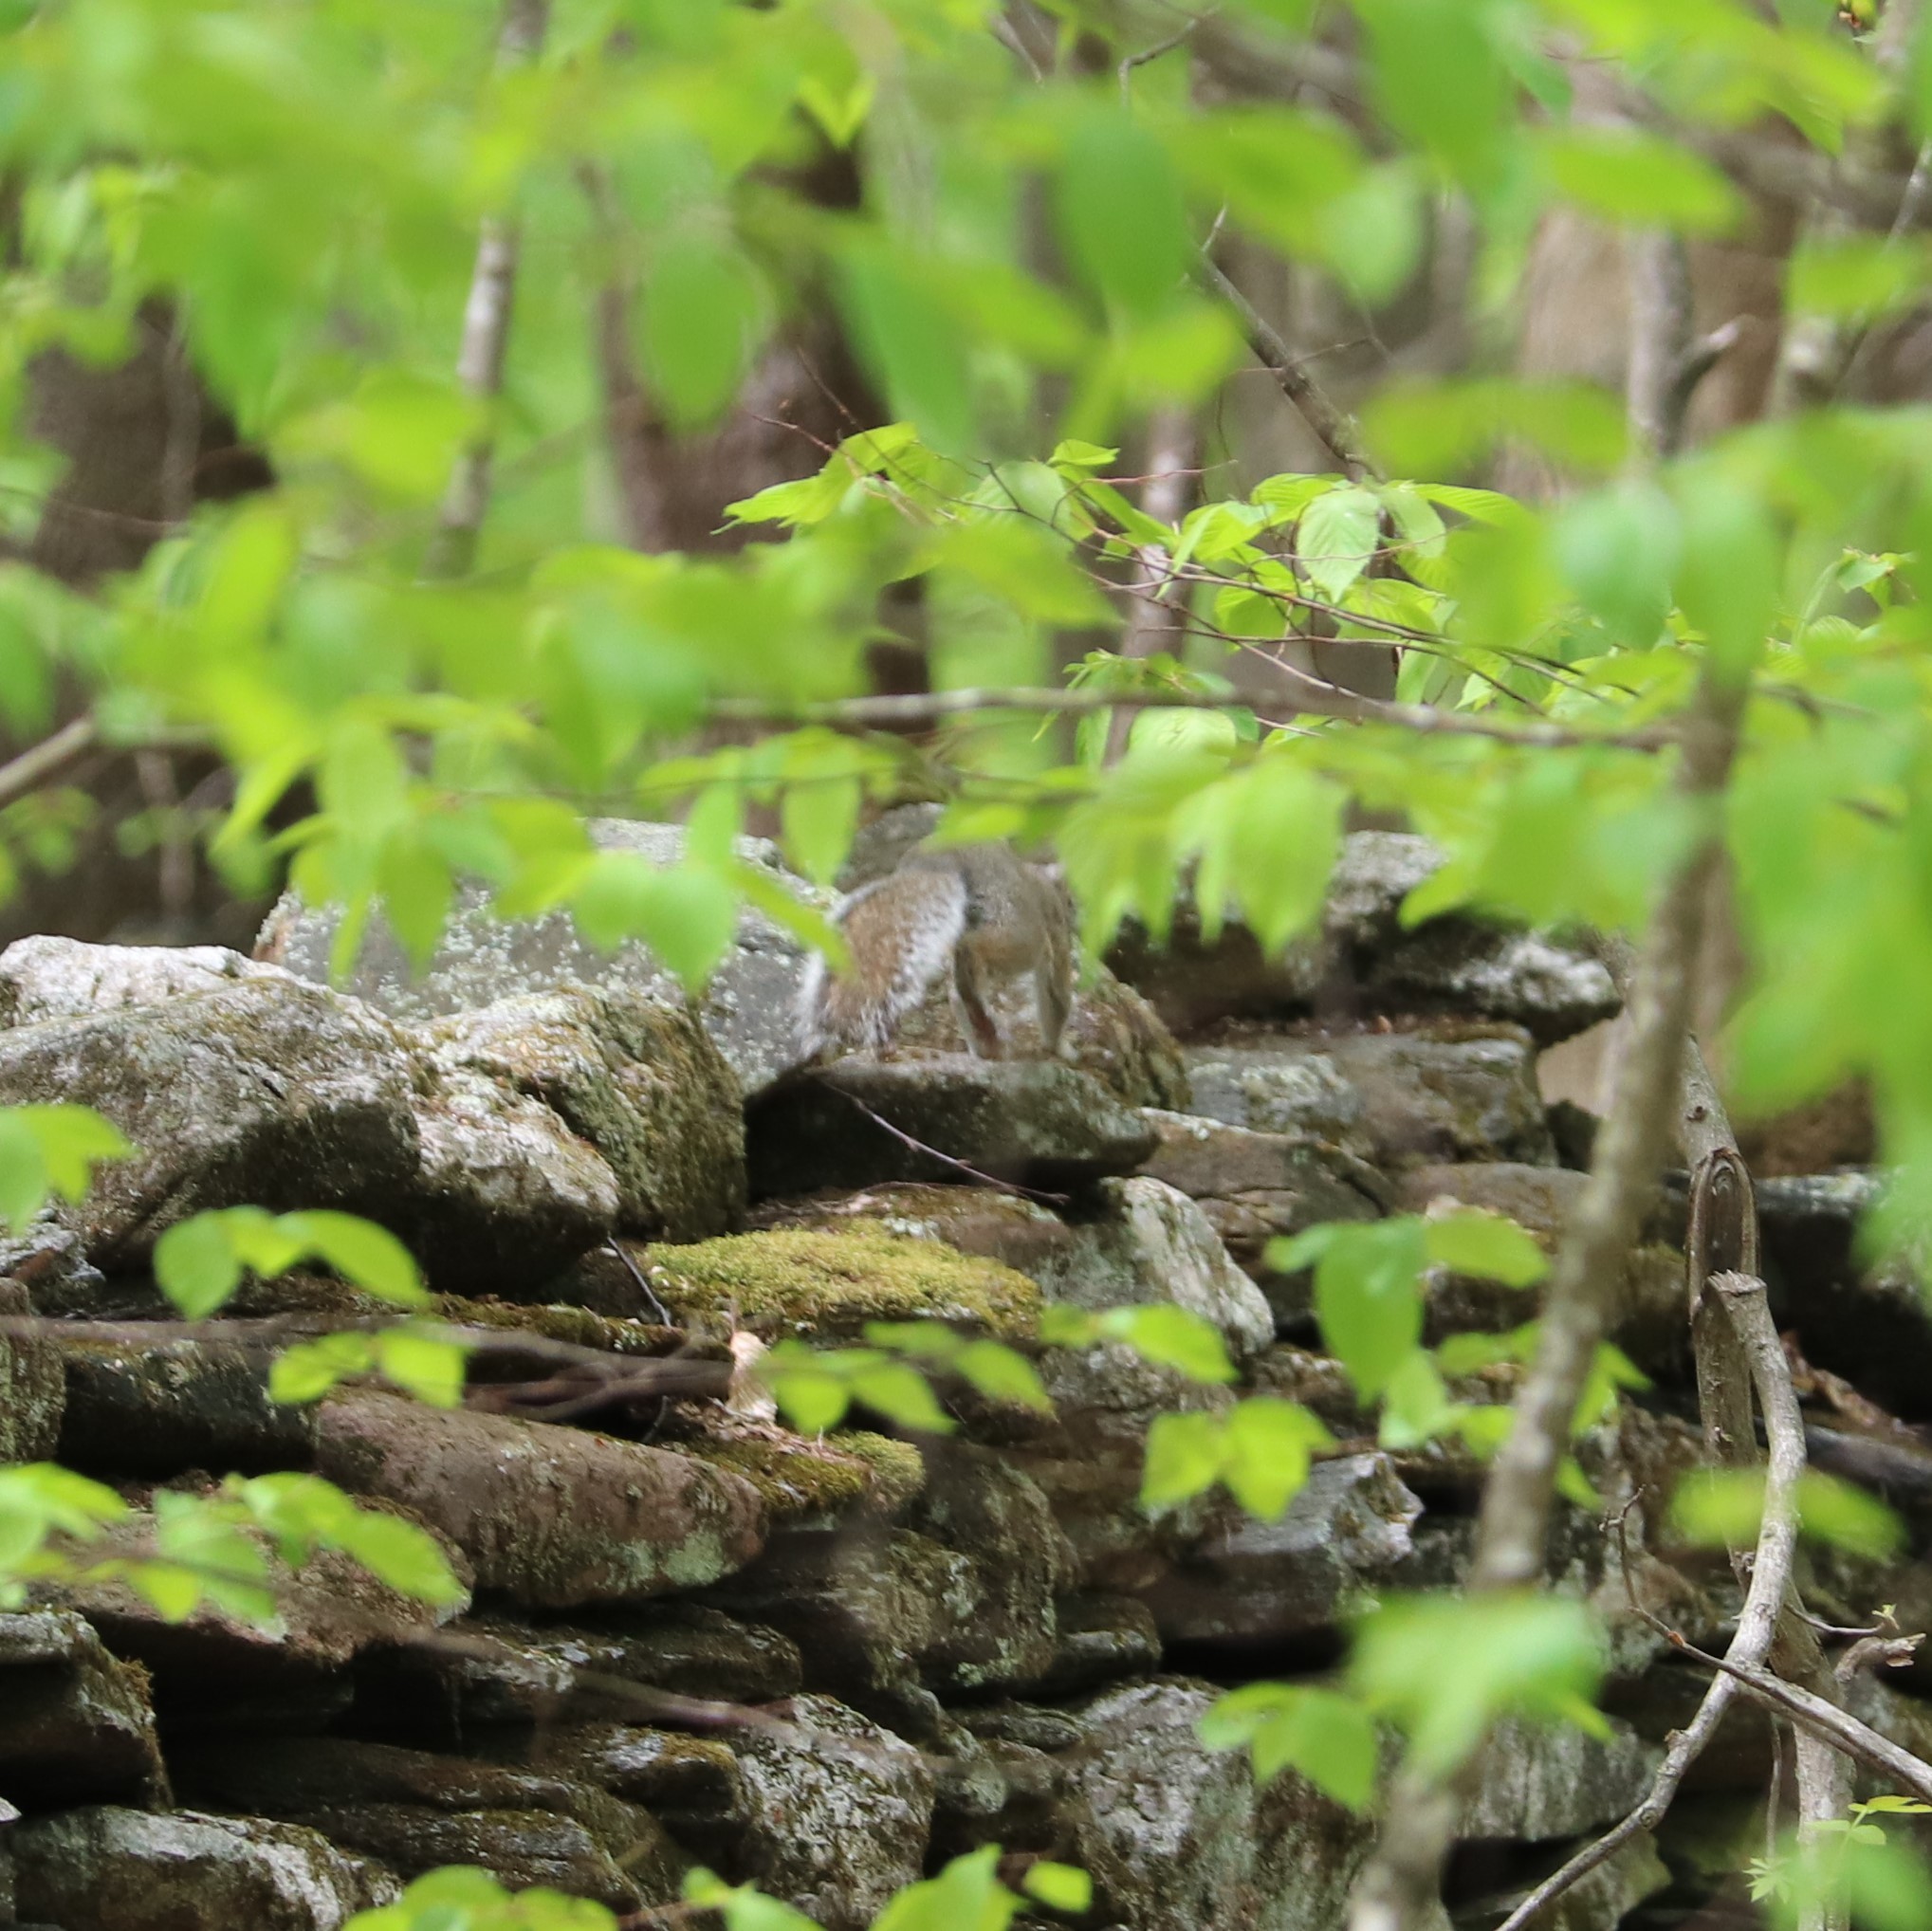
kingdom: Animalia
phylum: Chordata
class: Mammalia
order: Rodentia
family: Sciuridae
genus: Sciurus
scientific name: Sciurus carolinensis
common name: Eastern gray squirrel
